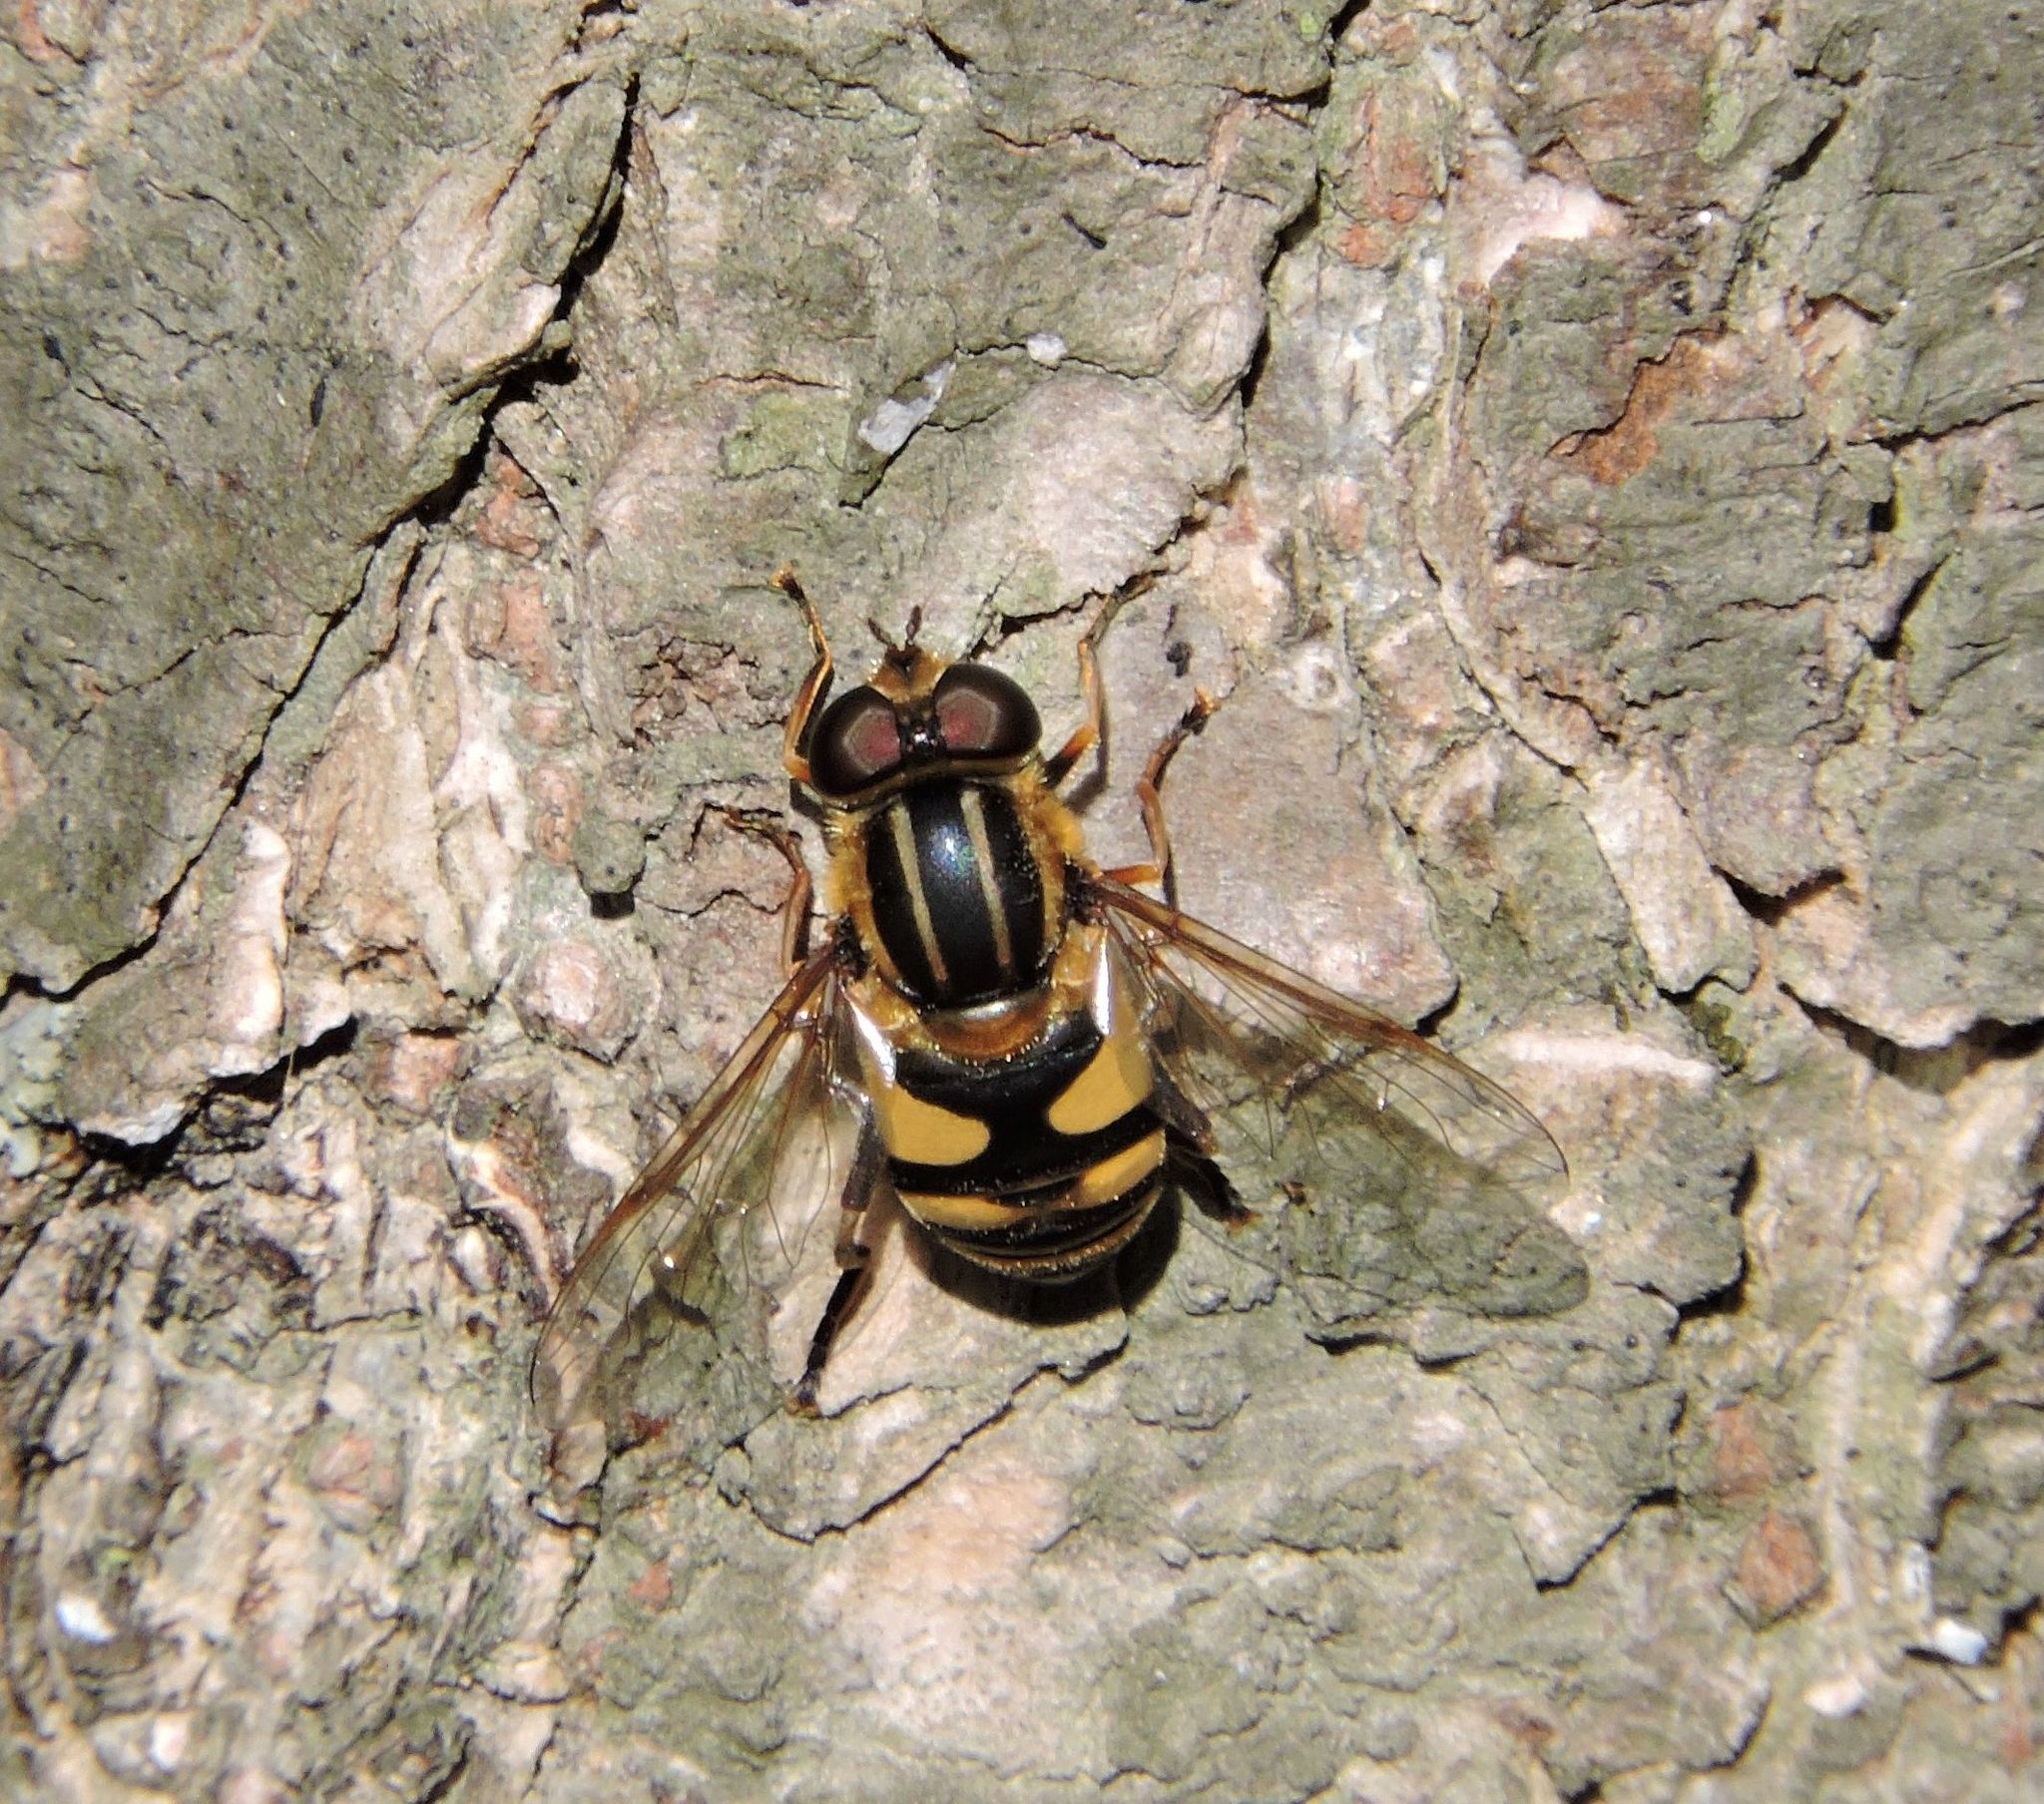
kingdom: Animalia
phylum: Arthropoda
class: Insecta
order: Diptera
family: Syrphidae
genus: Helophilus
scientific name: Helophilus fasciatus
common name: Narrow-headed marsh fly
